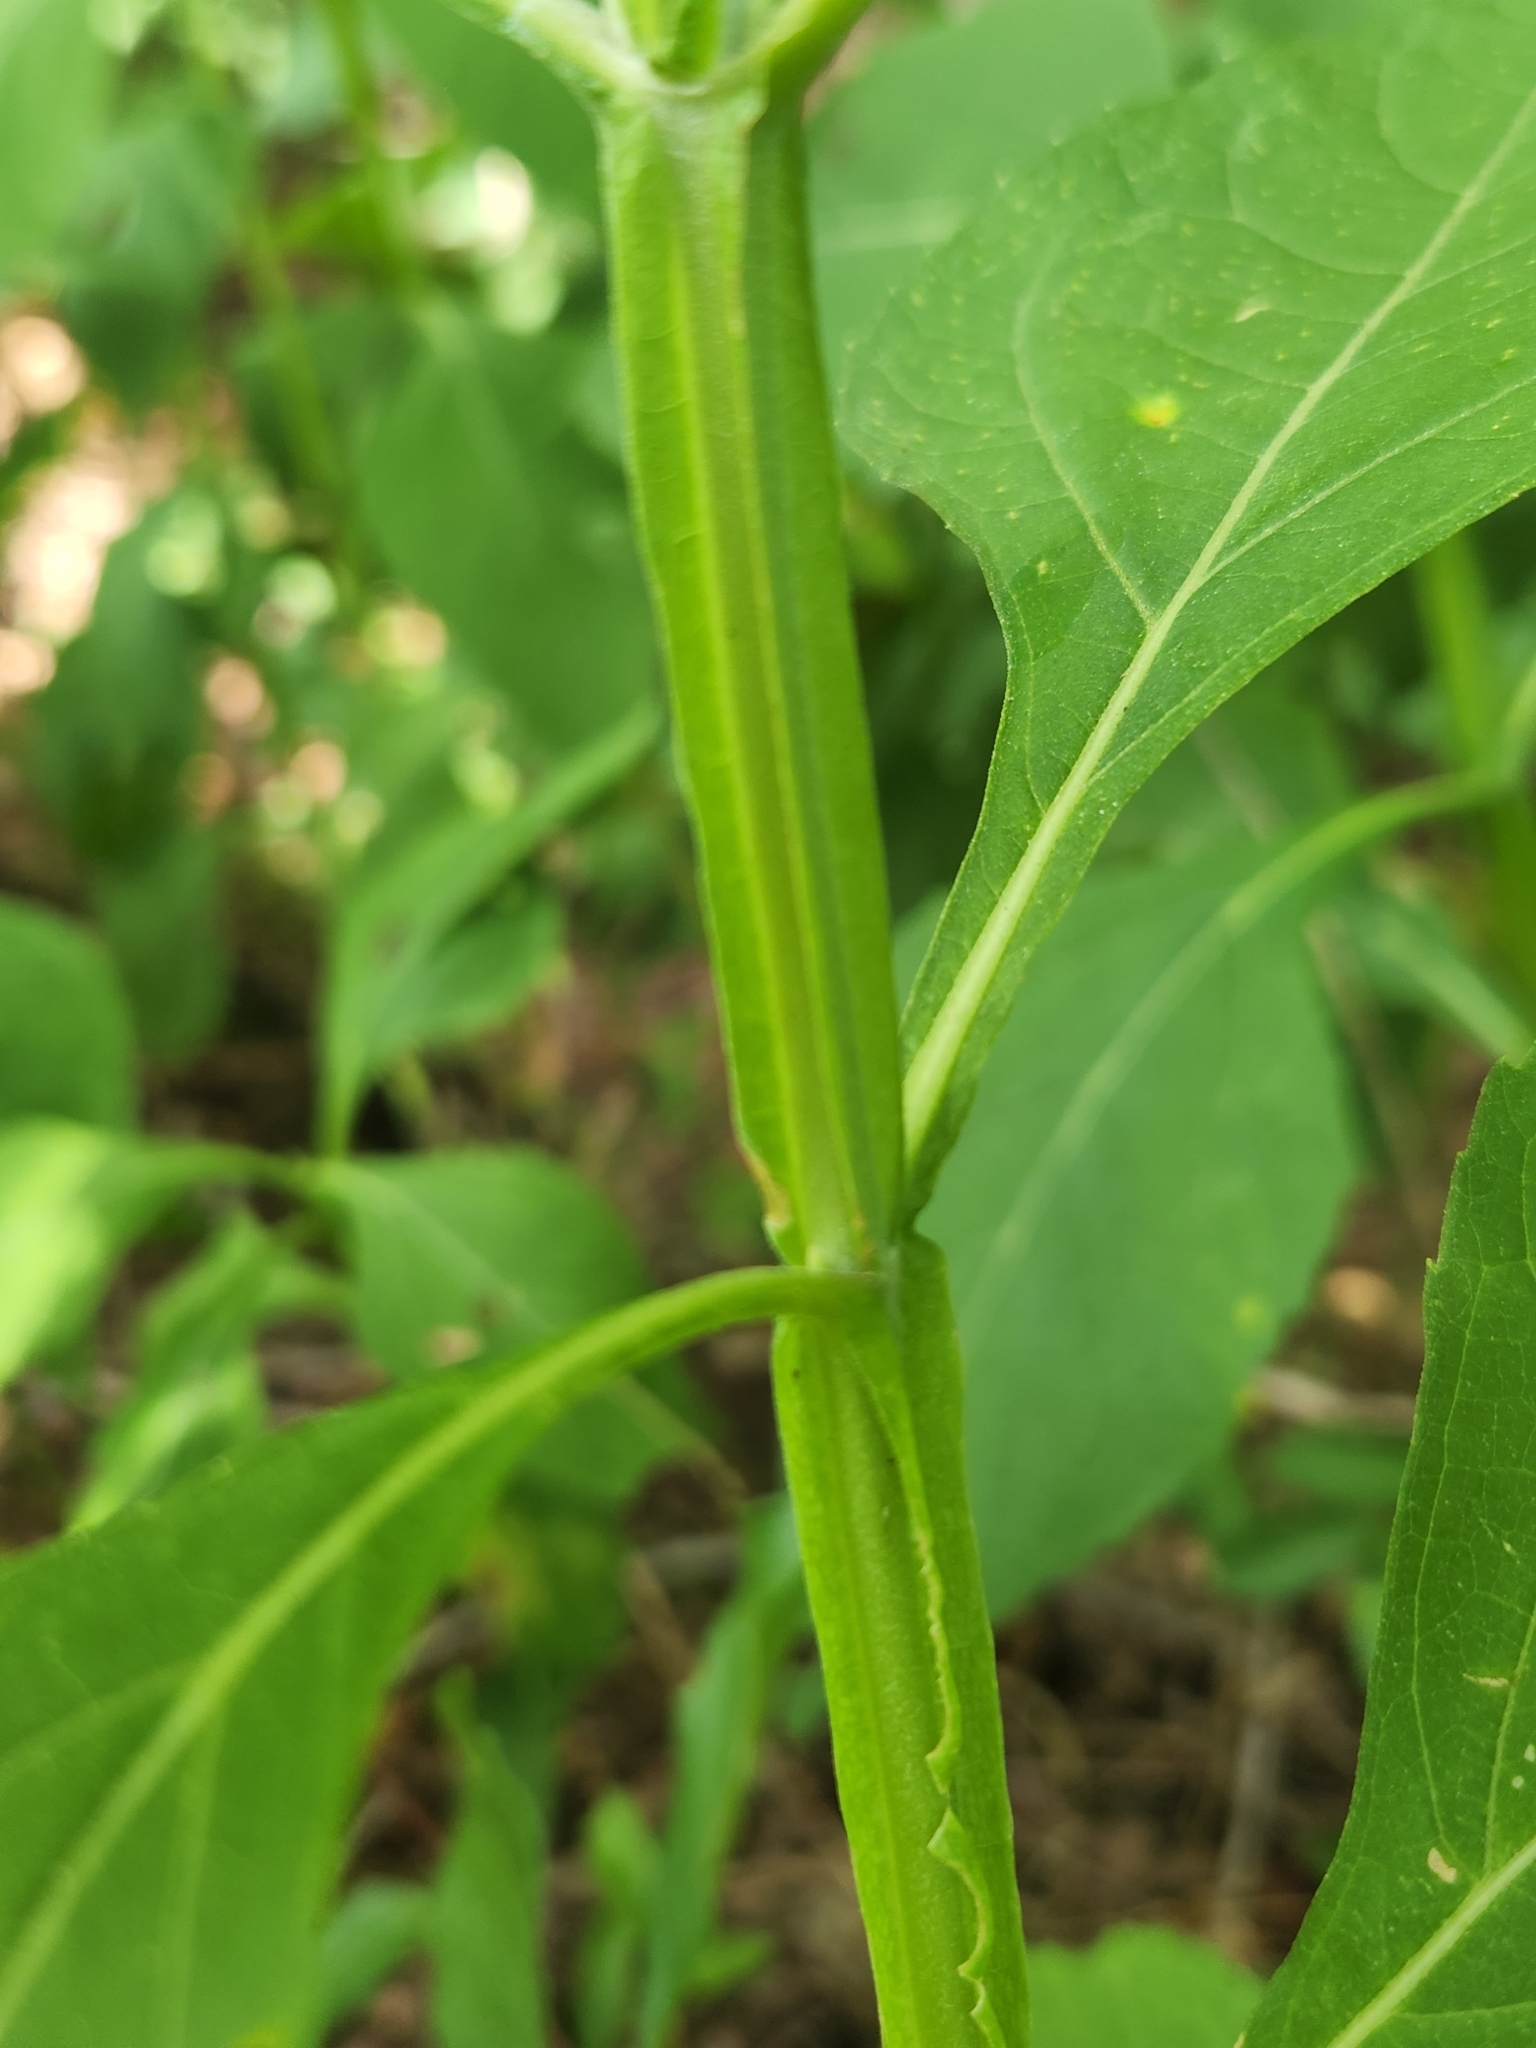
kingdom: Plantae
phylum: Tracheophyta
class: Magnoliopsida
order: Asterales
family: Asteraceae
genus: Verbesina
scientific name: Verbesina occidentalis
